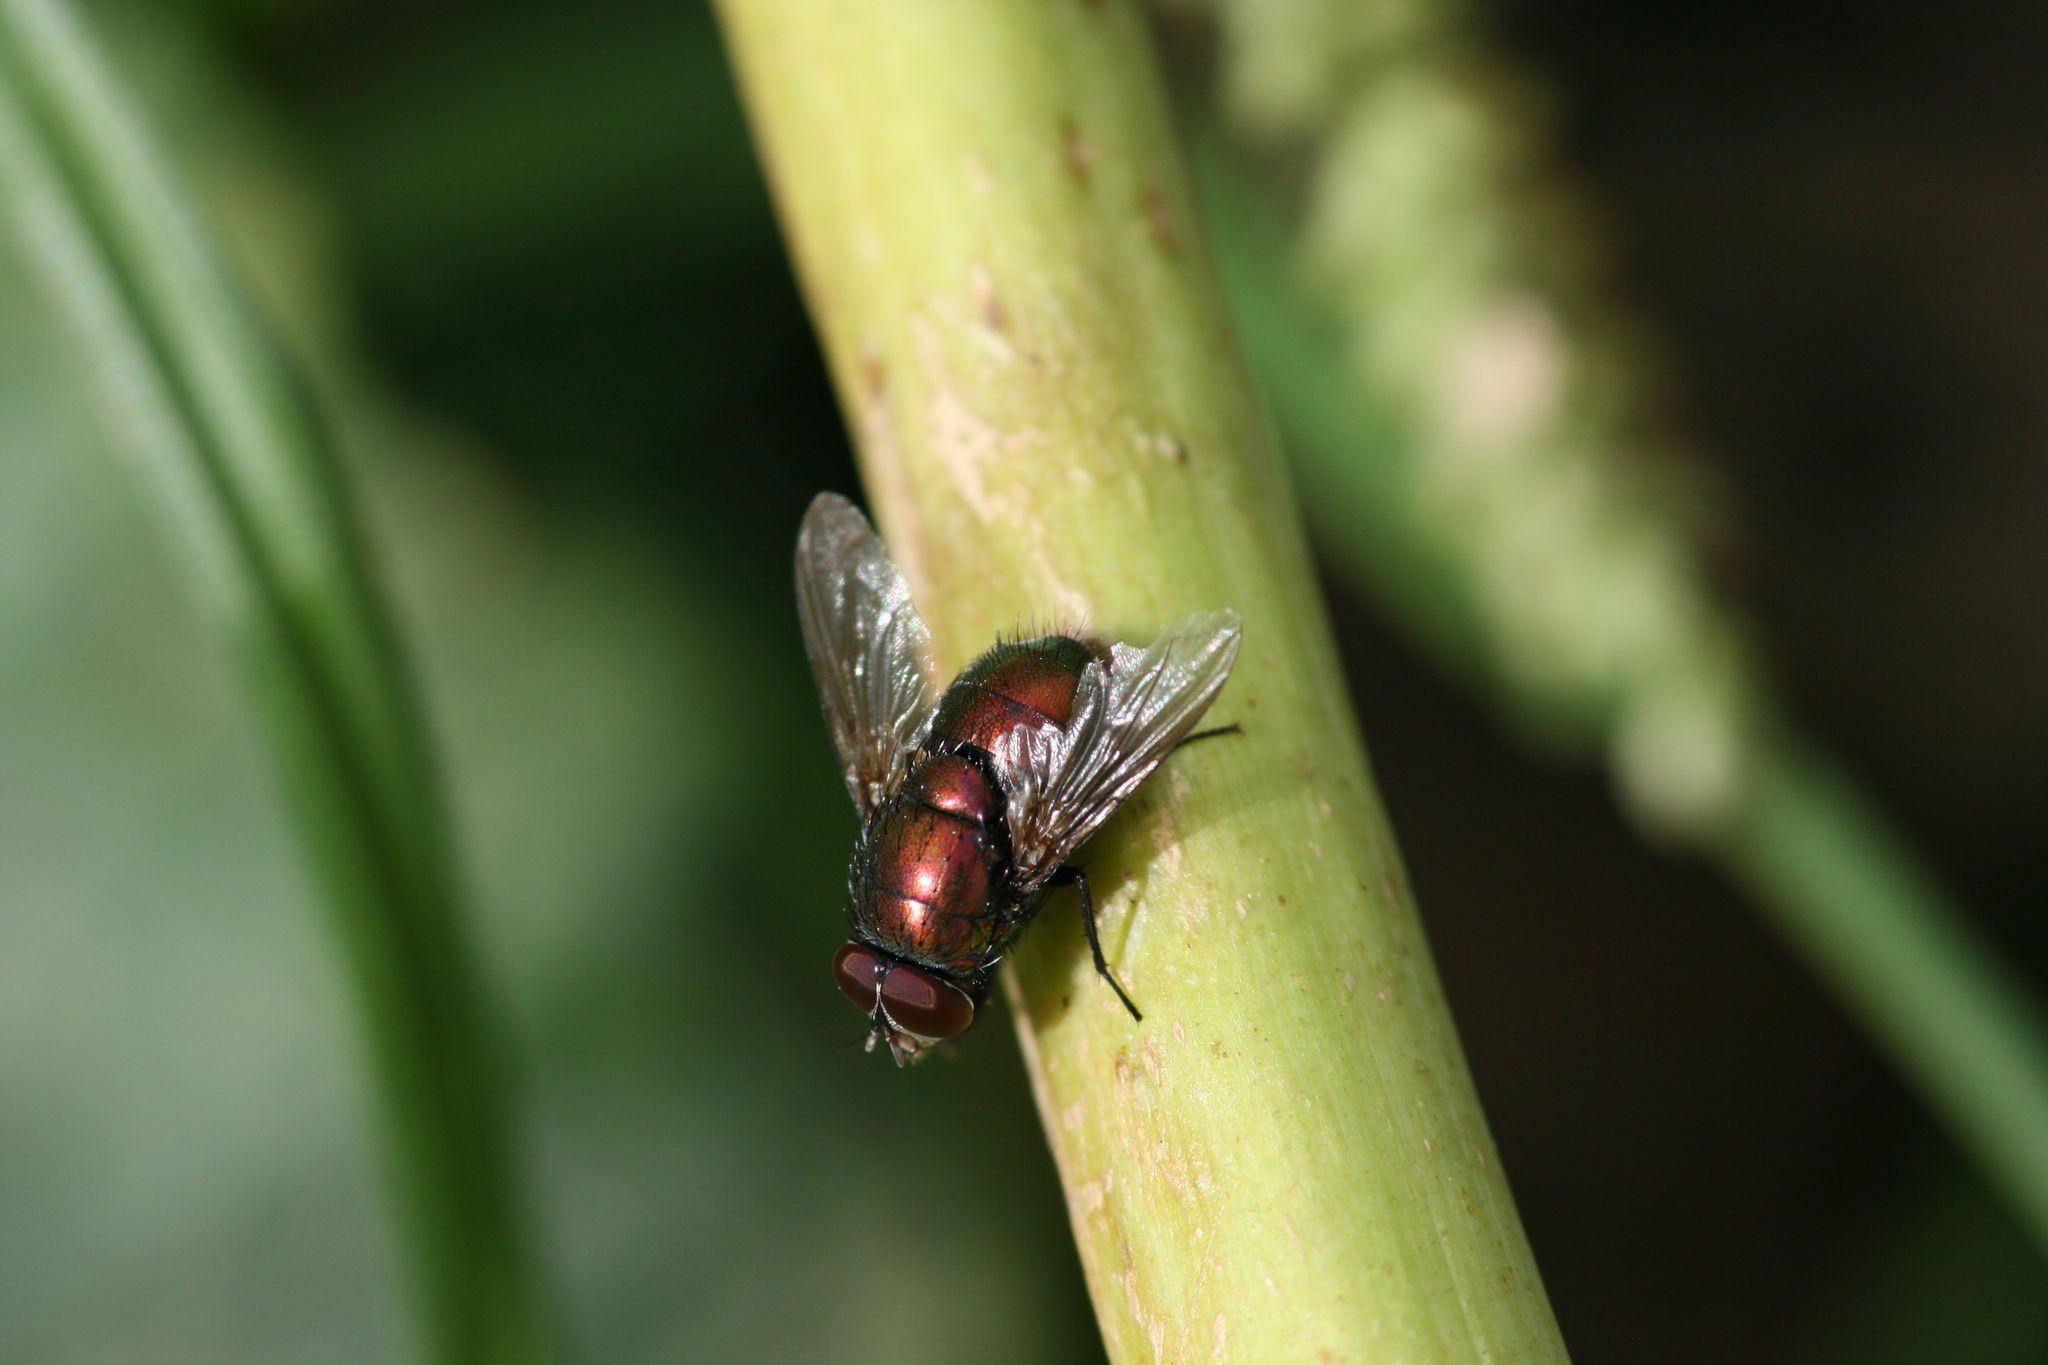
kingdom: Animalia
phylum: Arthropoda
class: Insecta
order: Diptera
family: Calliphoridae
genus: Lucilia
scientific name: Lucilia caesar
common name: Blow fly
